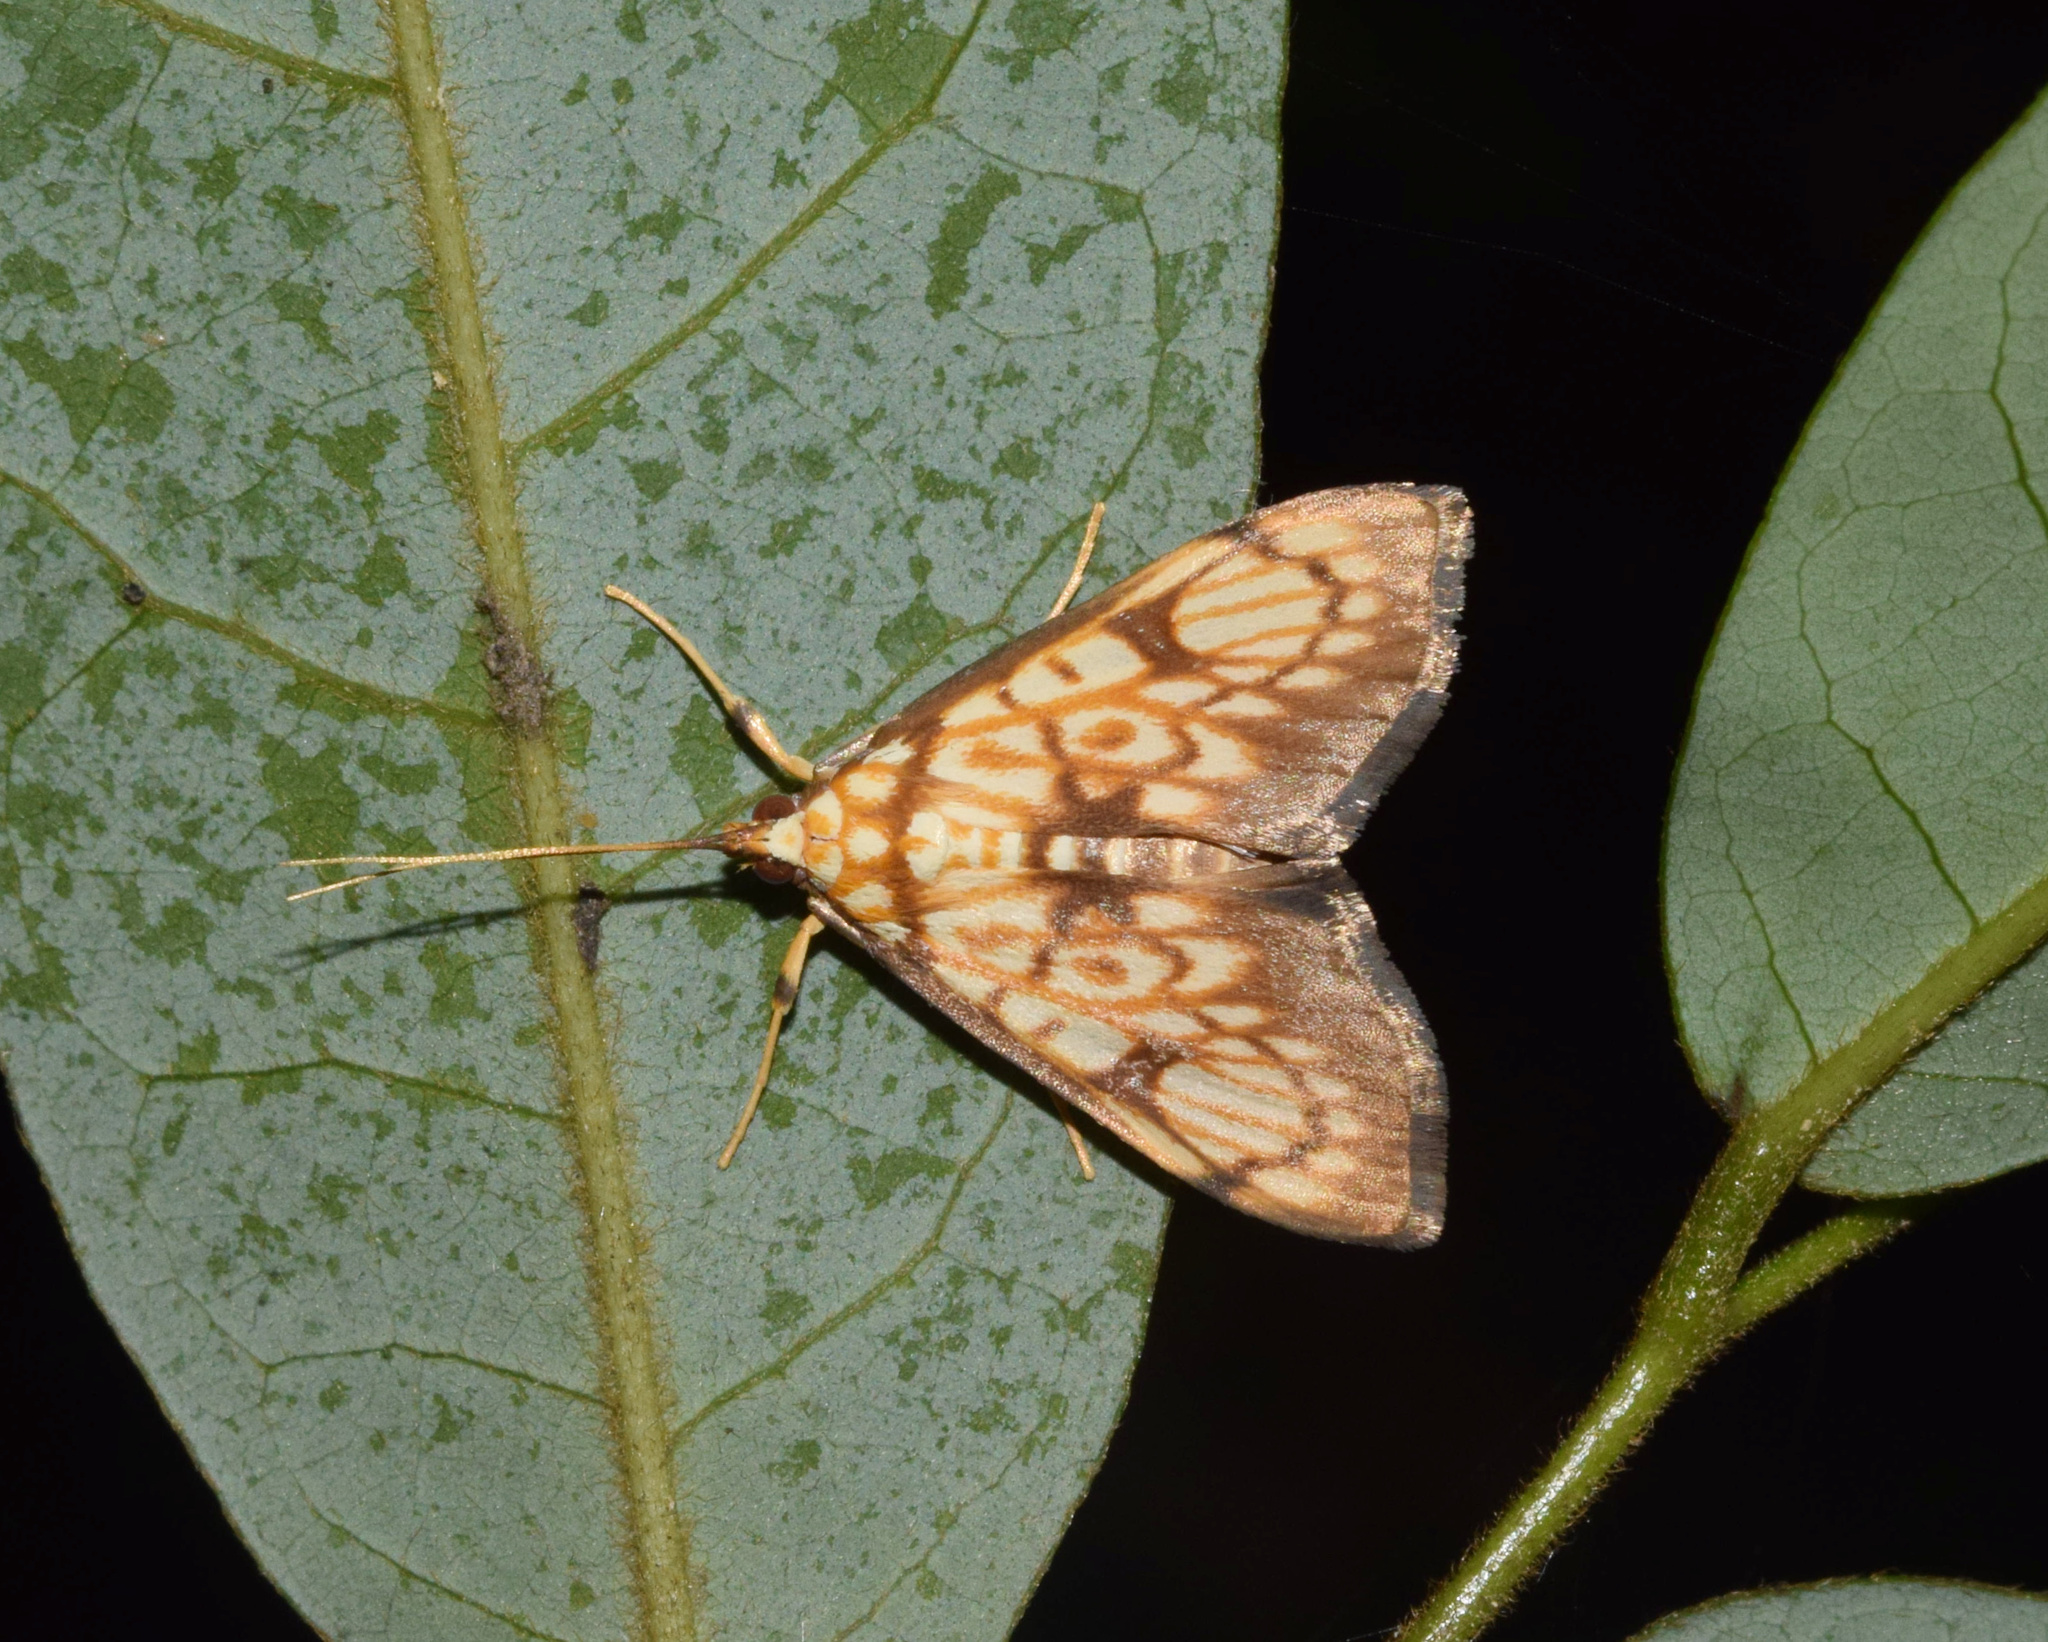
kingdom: Animalia
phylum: Arthropoda
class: Insecta
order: Lepidoptera
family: Crambidae
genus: Chalcidoptera
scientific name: Chalcidoptera rufilinealis
